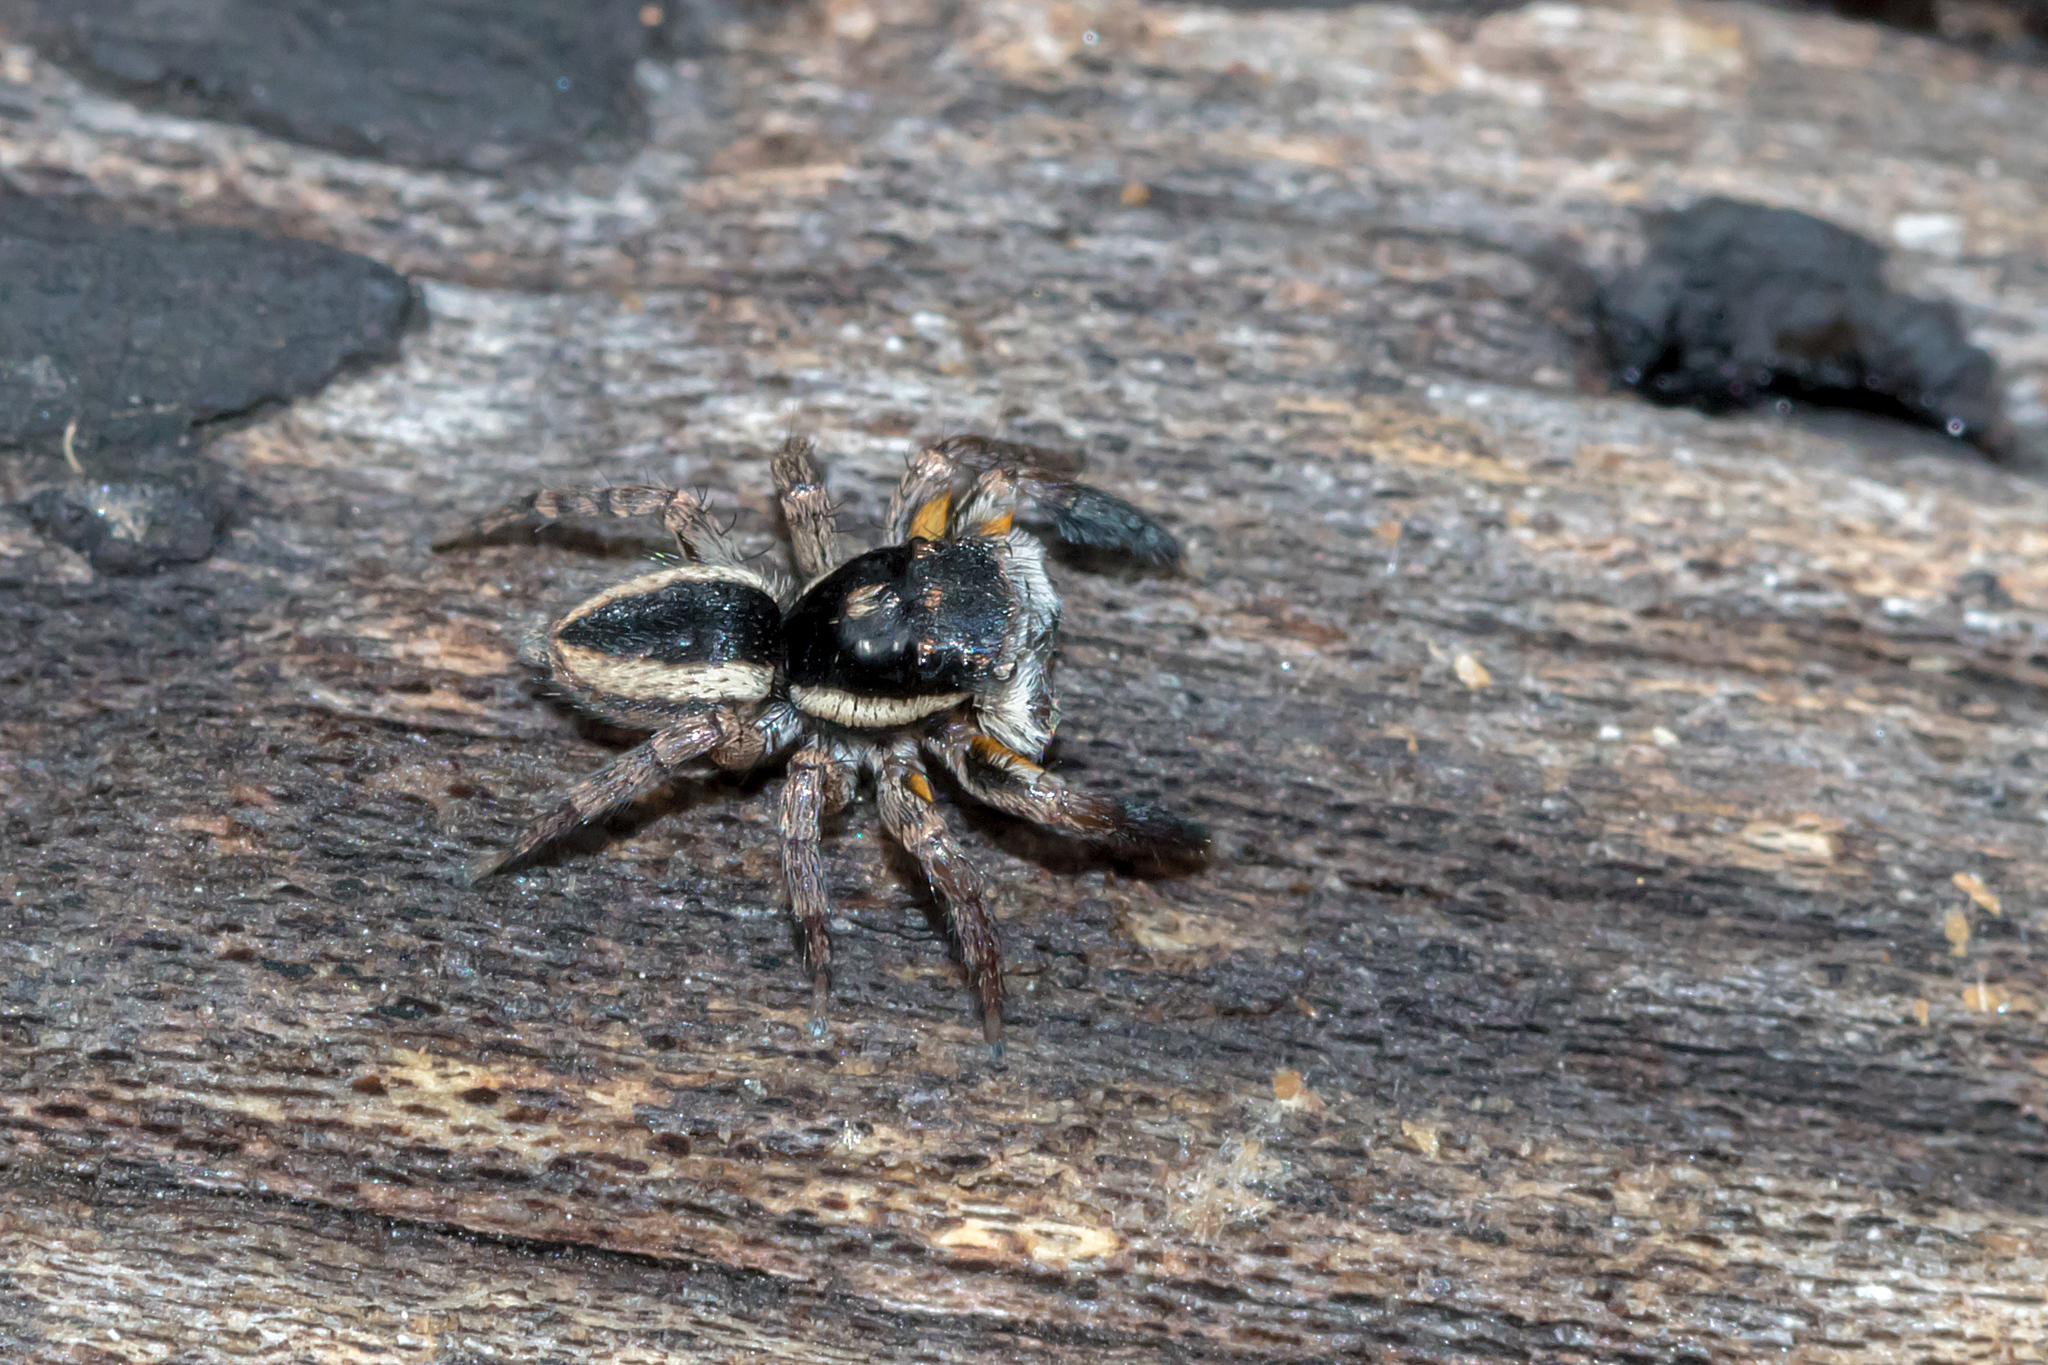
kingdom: Animalia
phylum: Arthropoda
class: Arachnida
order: Araneae
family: Salticidae
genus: Jotus
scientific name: Jotus auripes
